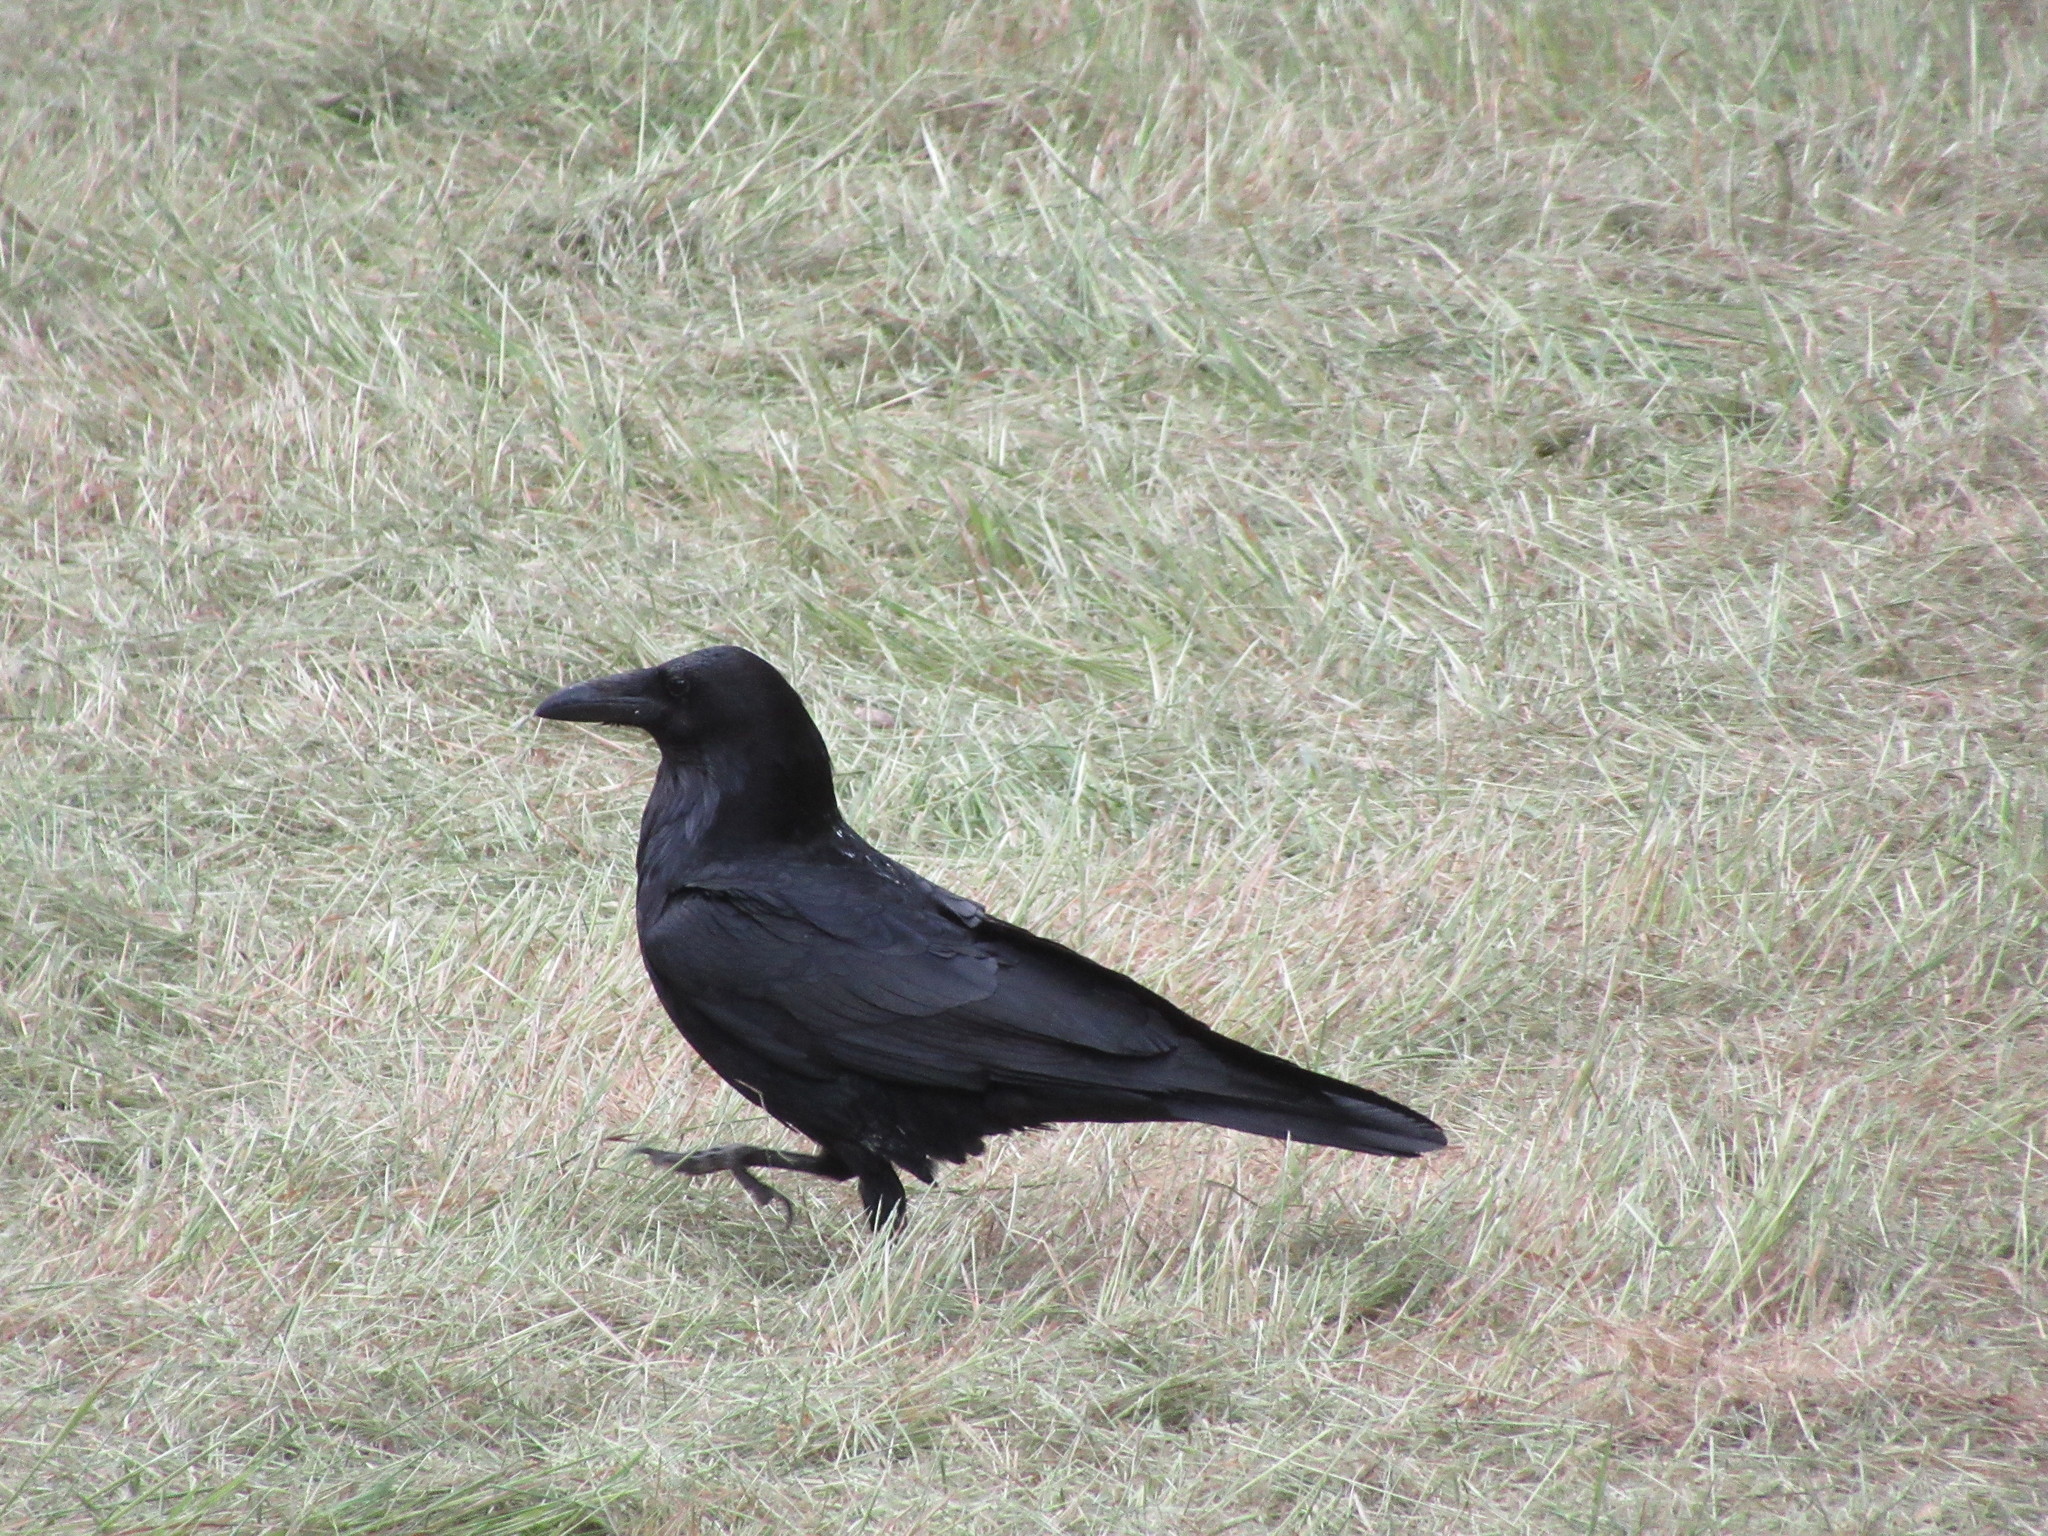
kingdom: Animalia
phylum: Chordata
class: Aves
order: Passeriformes
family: Corvidae
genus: Corvus
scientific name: Corvus corax
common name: Common raven
